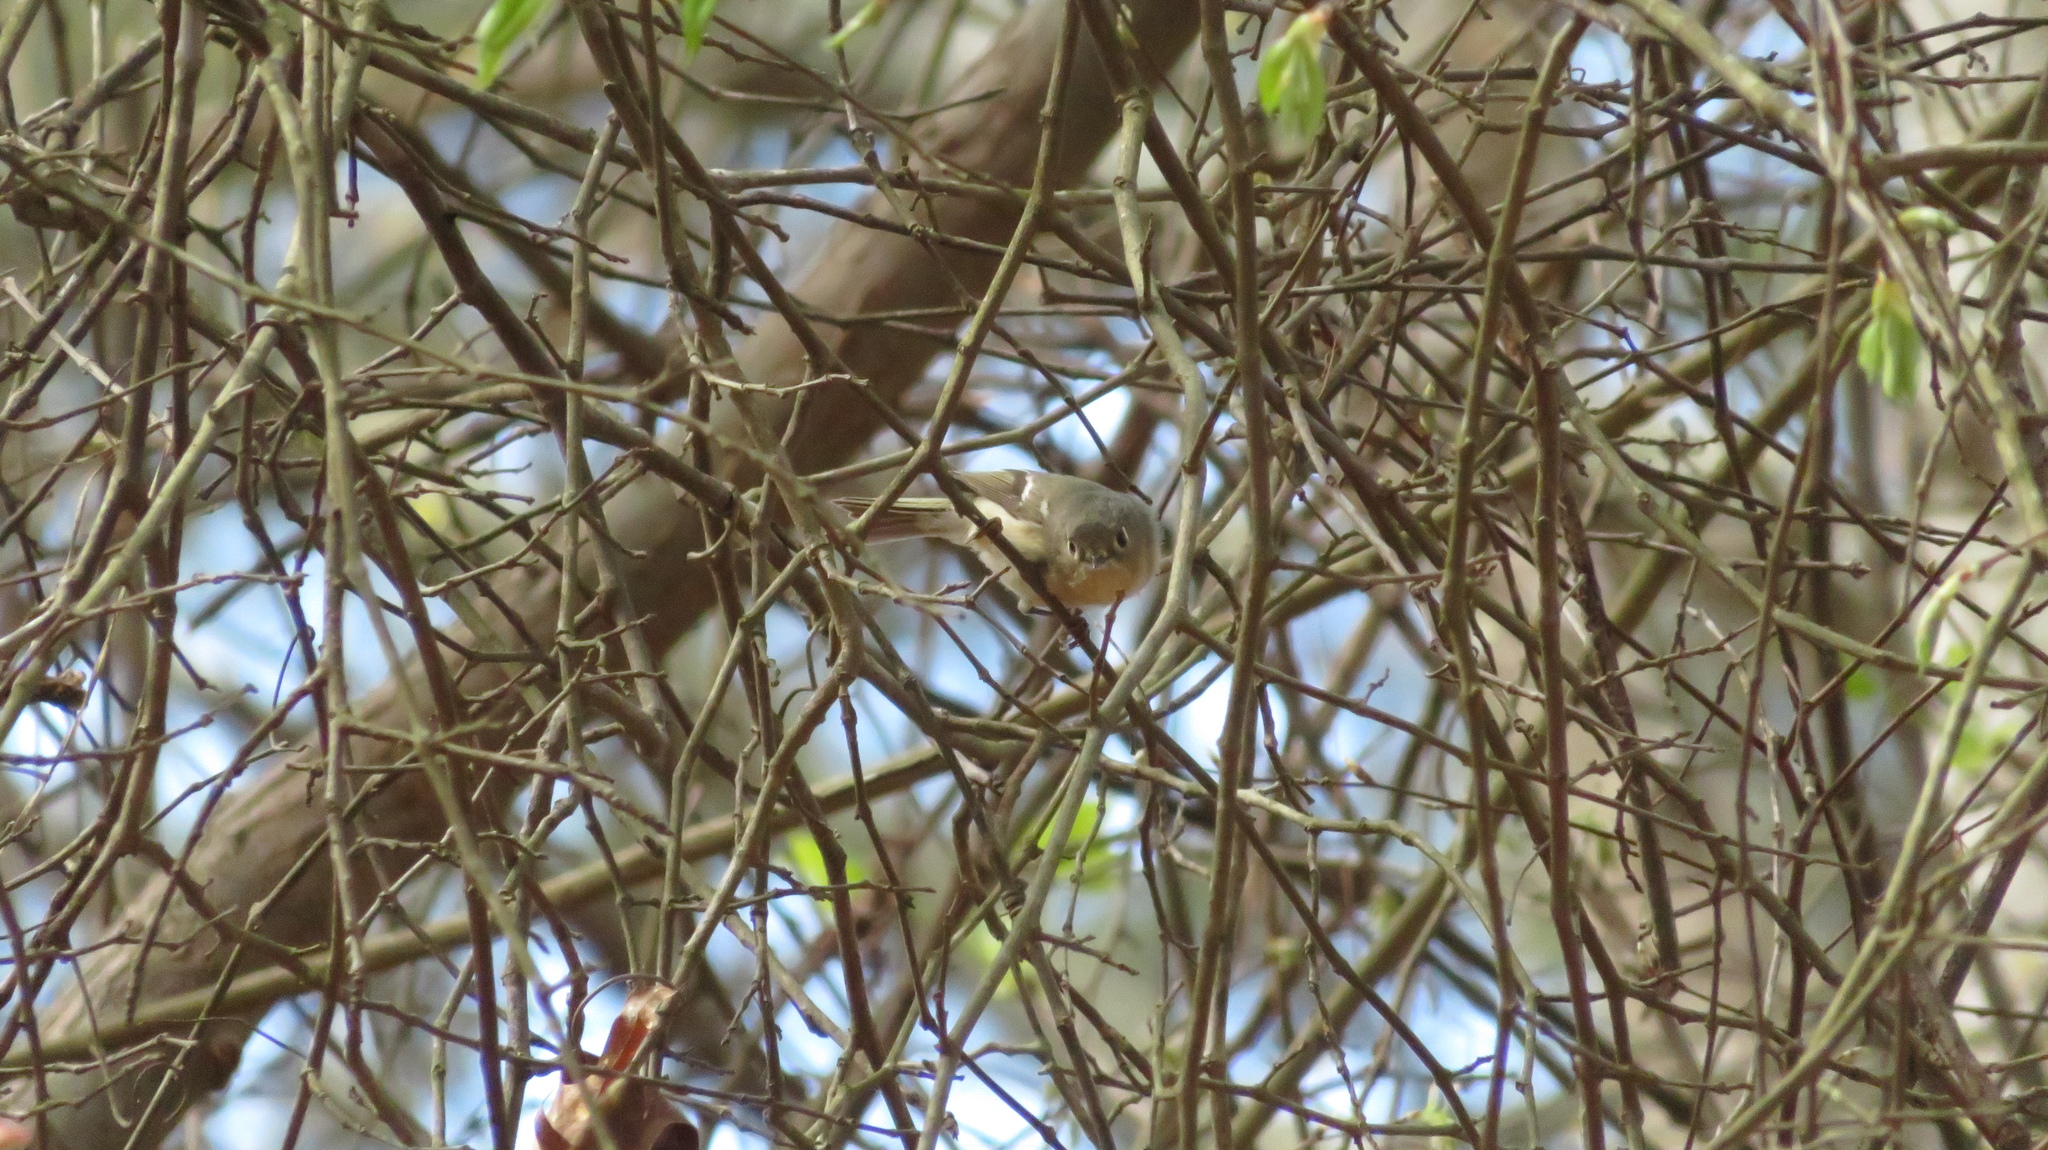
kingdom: Animalia
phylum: Chordata
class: Aves
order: Passeriformes
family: Regulidae
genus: Regulus
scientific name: Regulus calendula
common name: Ruby-crowned kinglet
